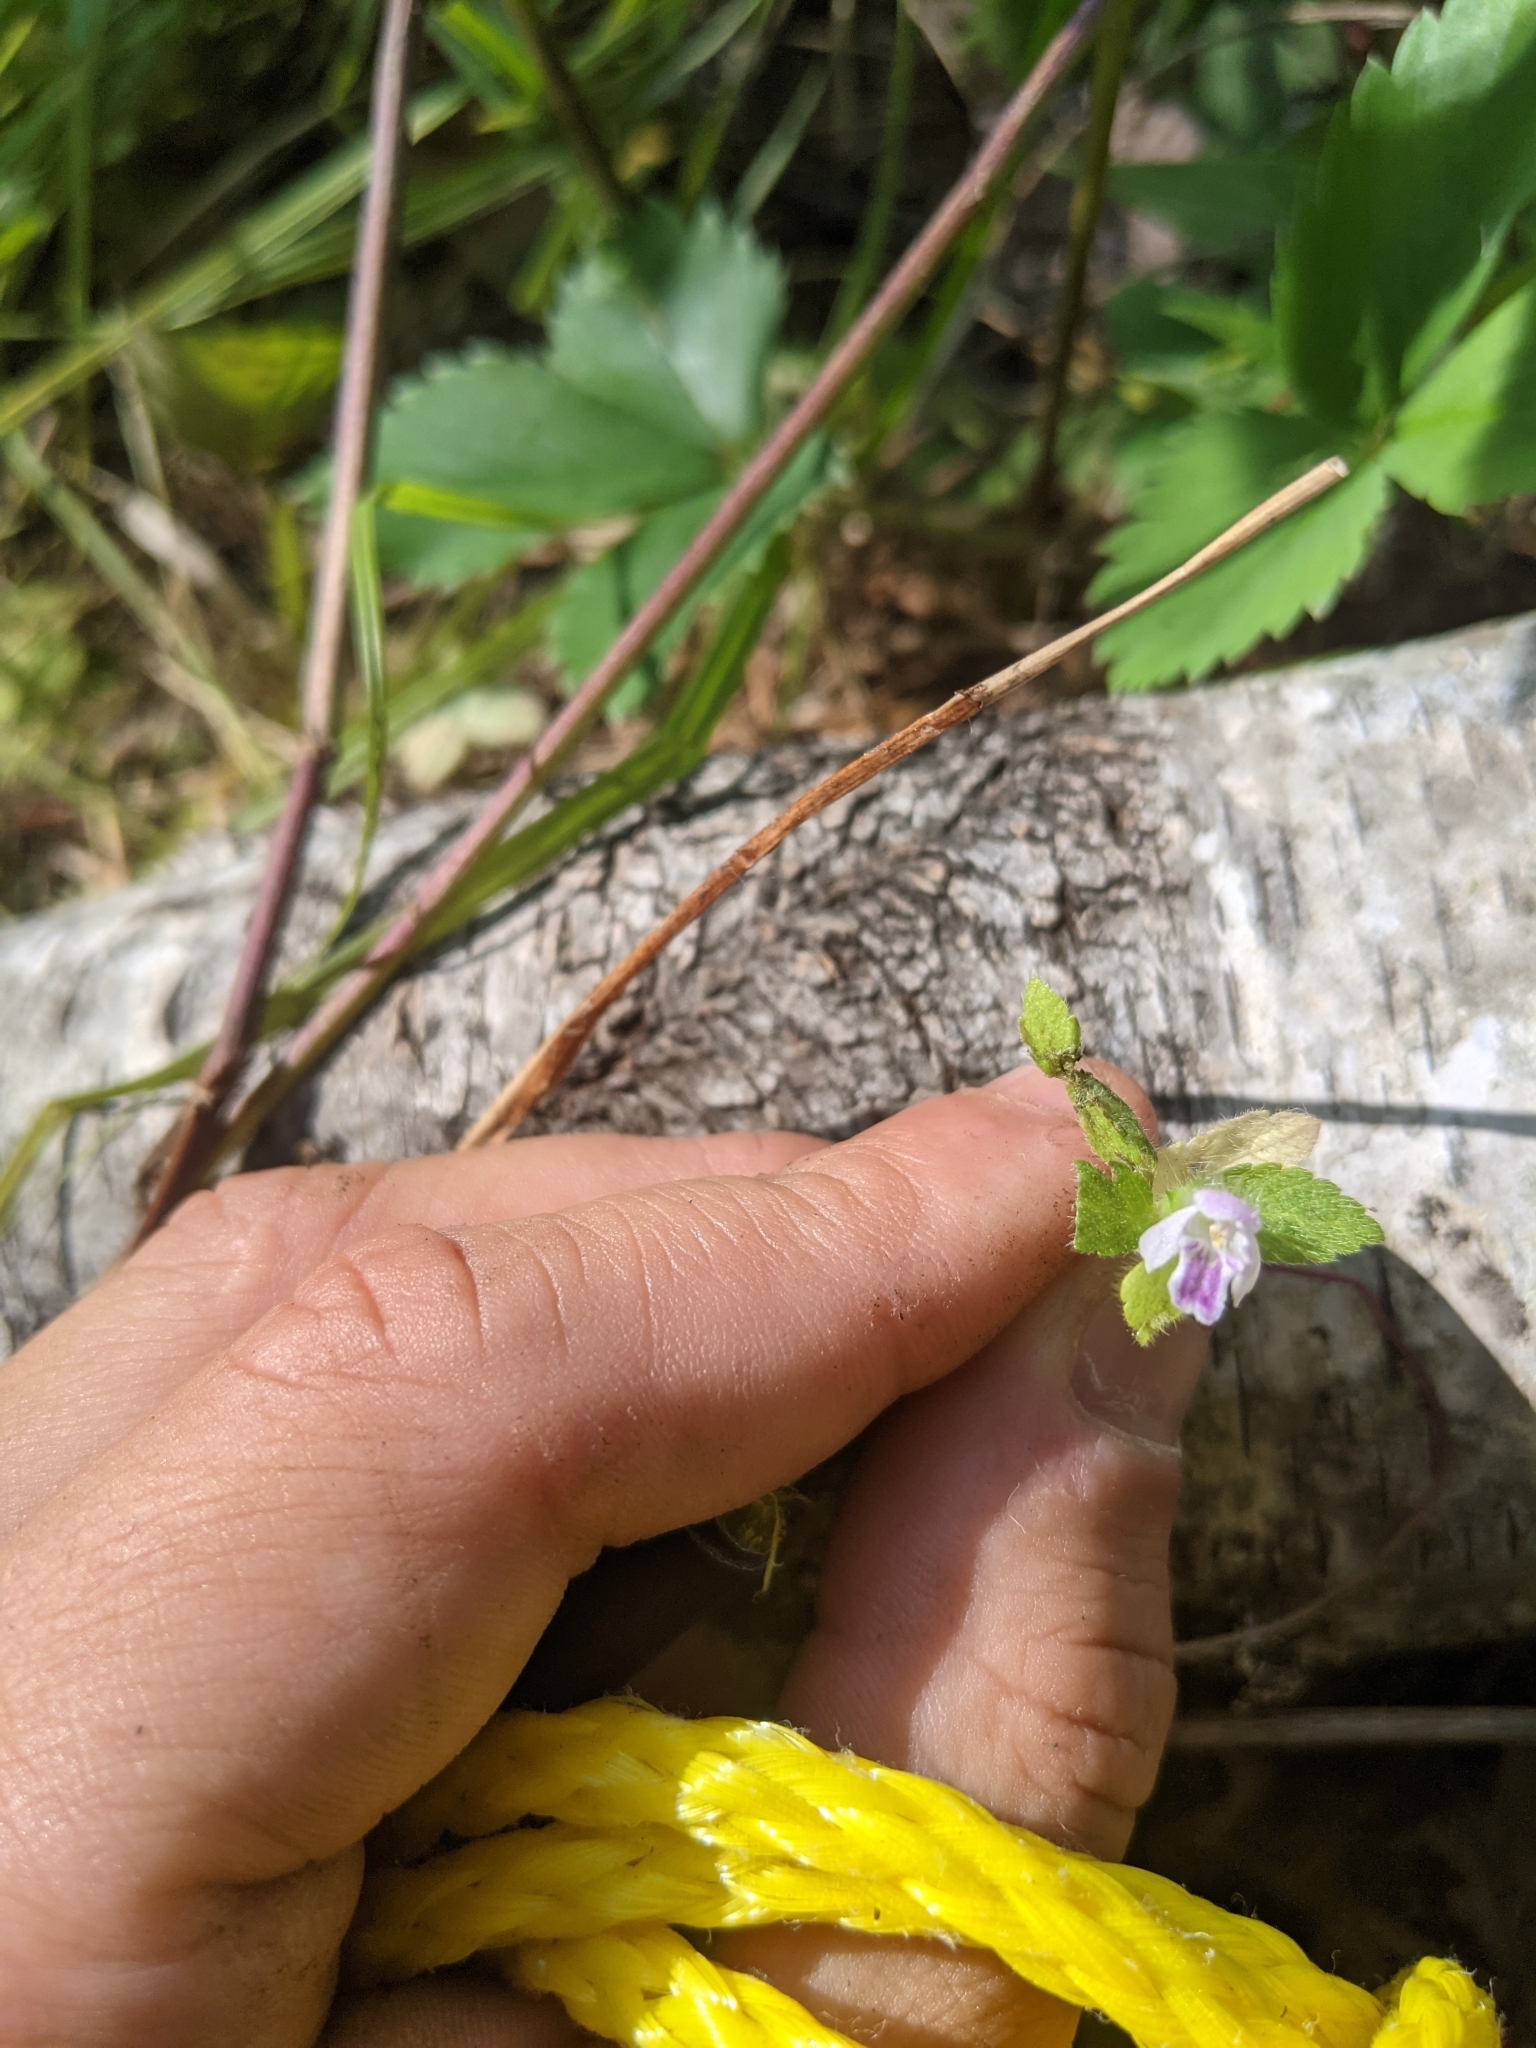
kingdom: Plantae
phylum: Tracheophyta
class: Magnoliopsida
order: Lamiales
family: Lamiaceae
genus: Galeopsis
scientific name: Galeopsis bifida
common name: Bifid hemp-nettle
